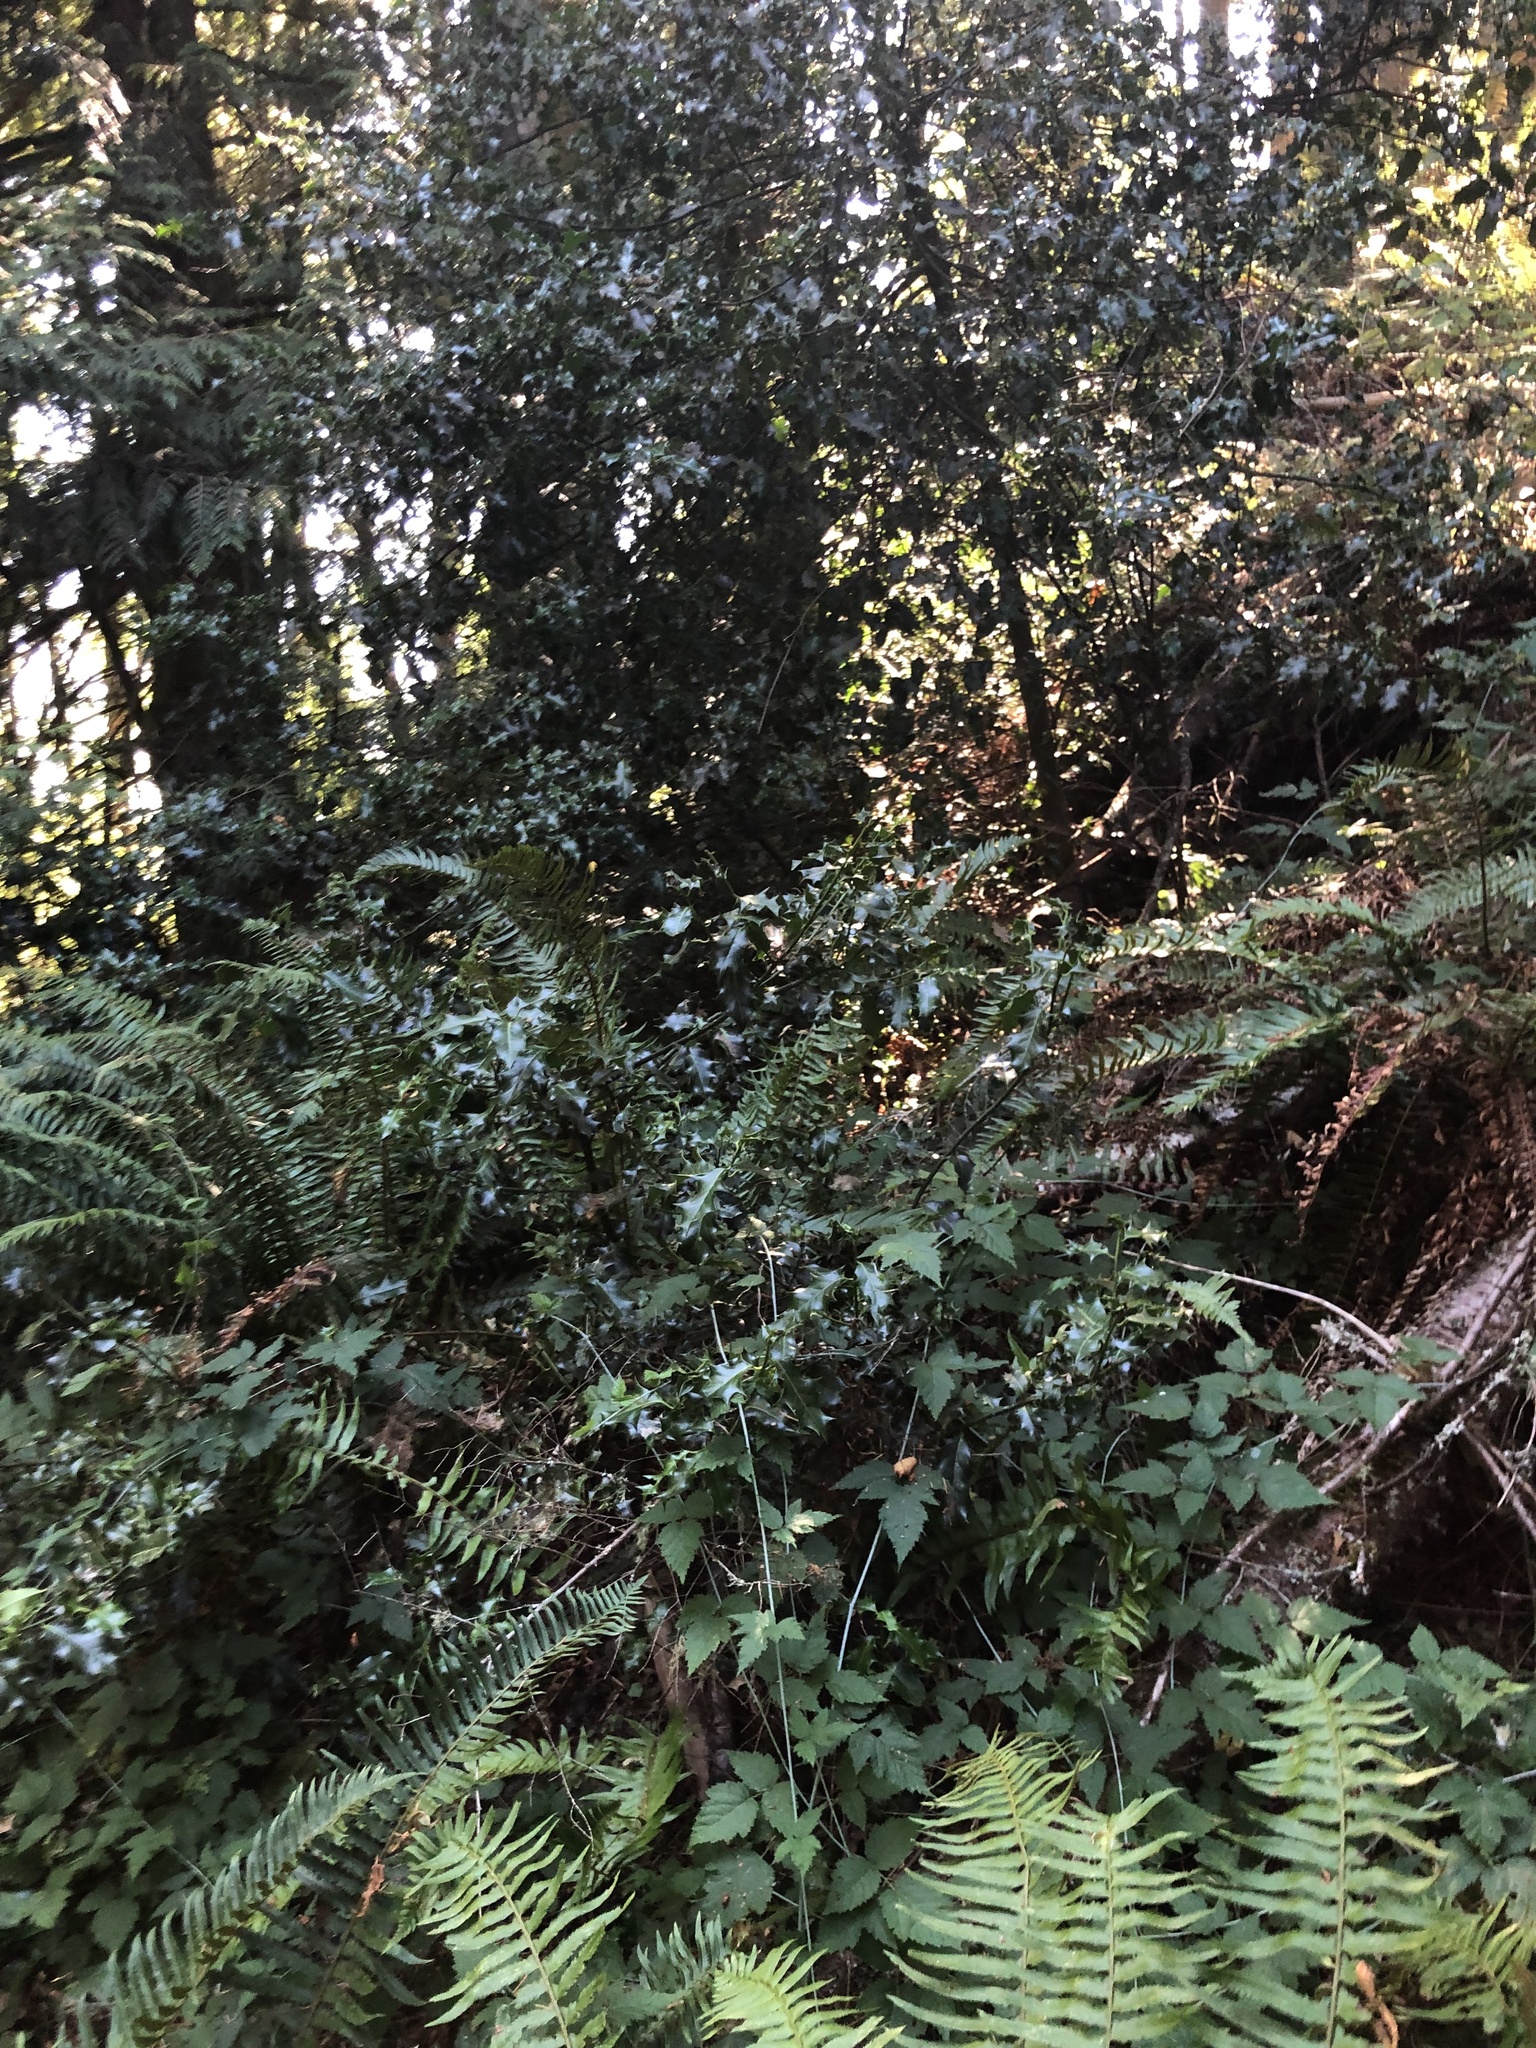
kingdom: Plantae
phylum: Tracheophyta
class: Magnoliopsida
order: Aquifoliales
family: Aquifoliaceae
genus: Ilex
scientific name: Ilex aquifolium
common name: English holly
